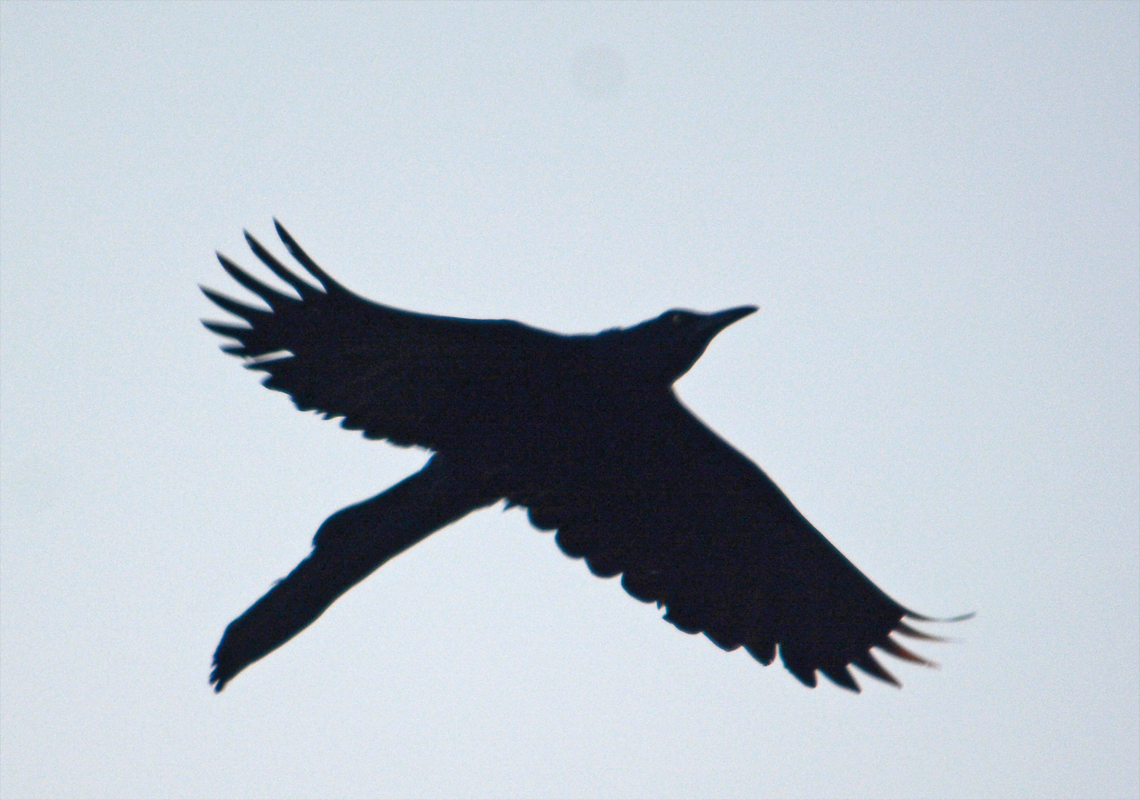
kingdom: Animalia
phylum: Chordata
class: Aves
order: Passeriformes
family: Icteridae
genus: Quiscalus
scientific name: Quiscalus mexicanus
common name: Great-tailed grackle
